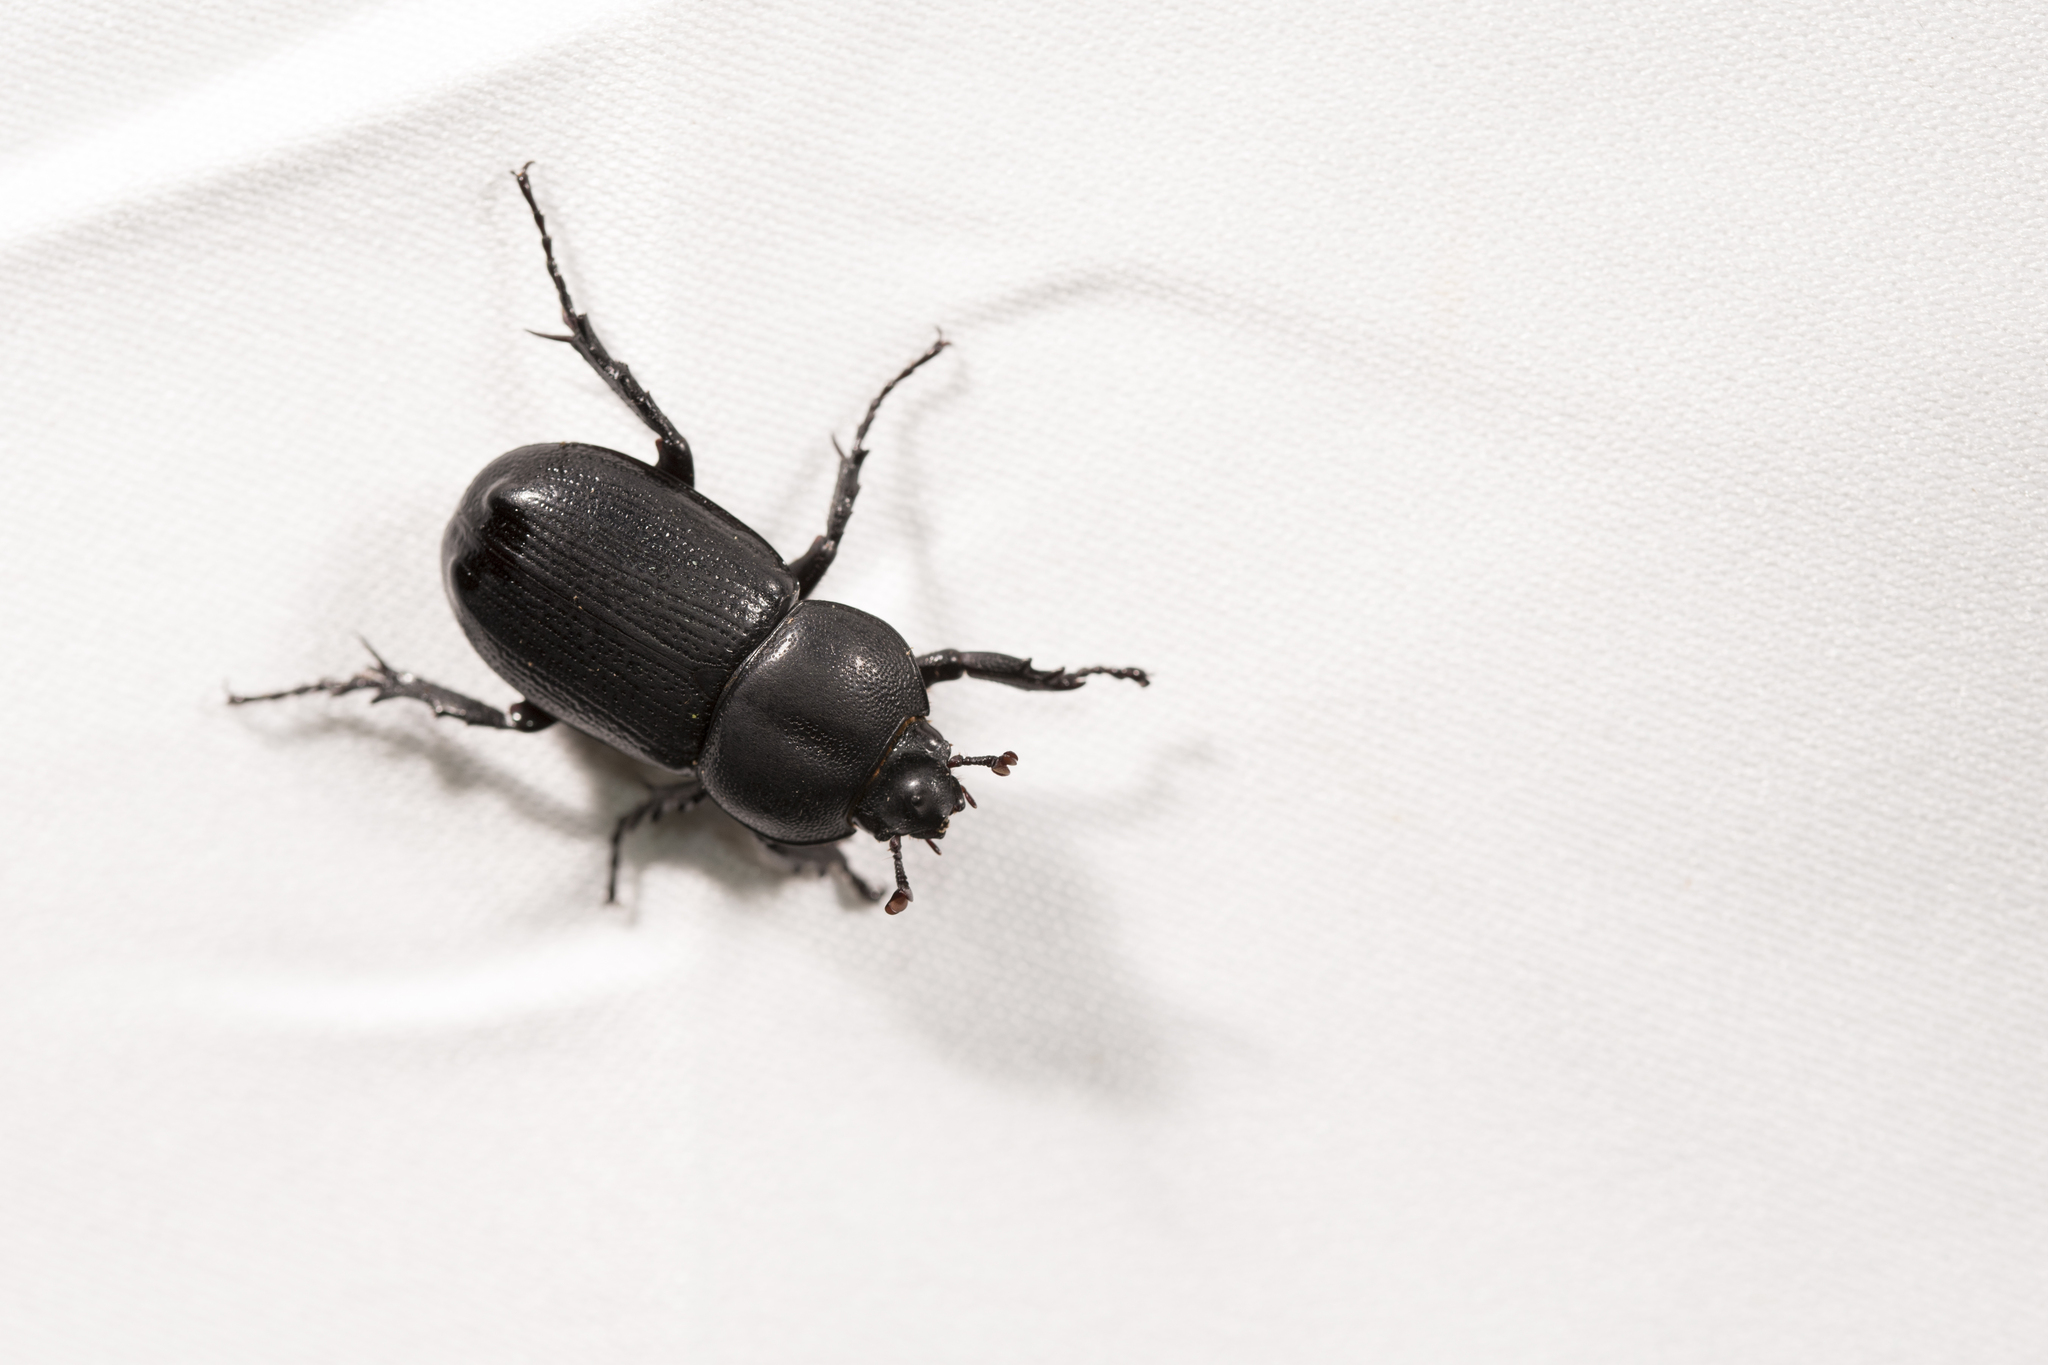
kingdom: Animalia
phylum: Arthropoda
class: Insecta
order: Coleoptera
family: Scarabaeidae
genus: Eophileurus
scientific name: Eophileurus chinensis
